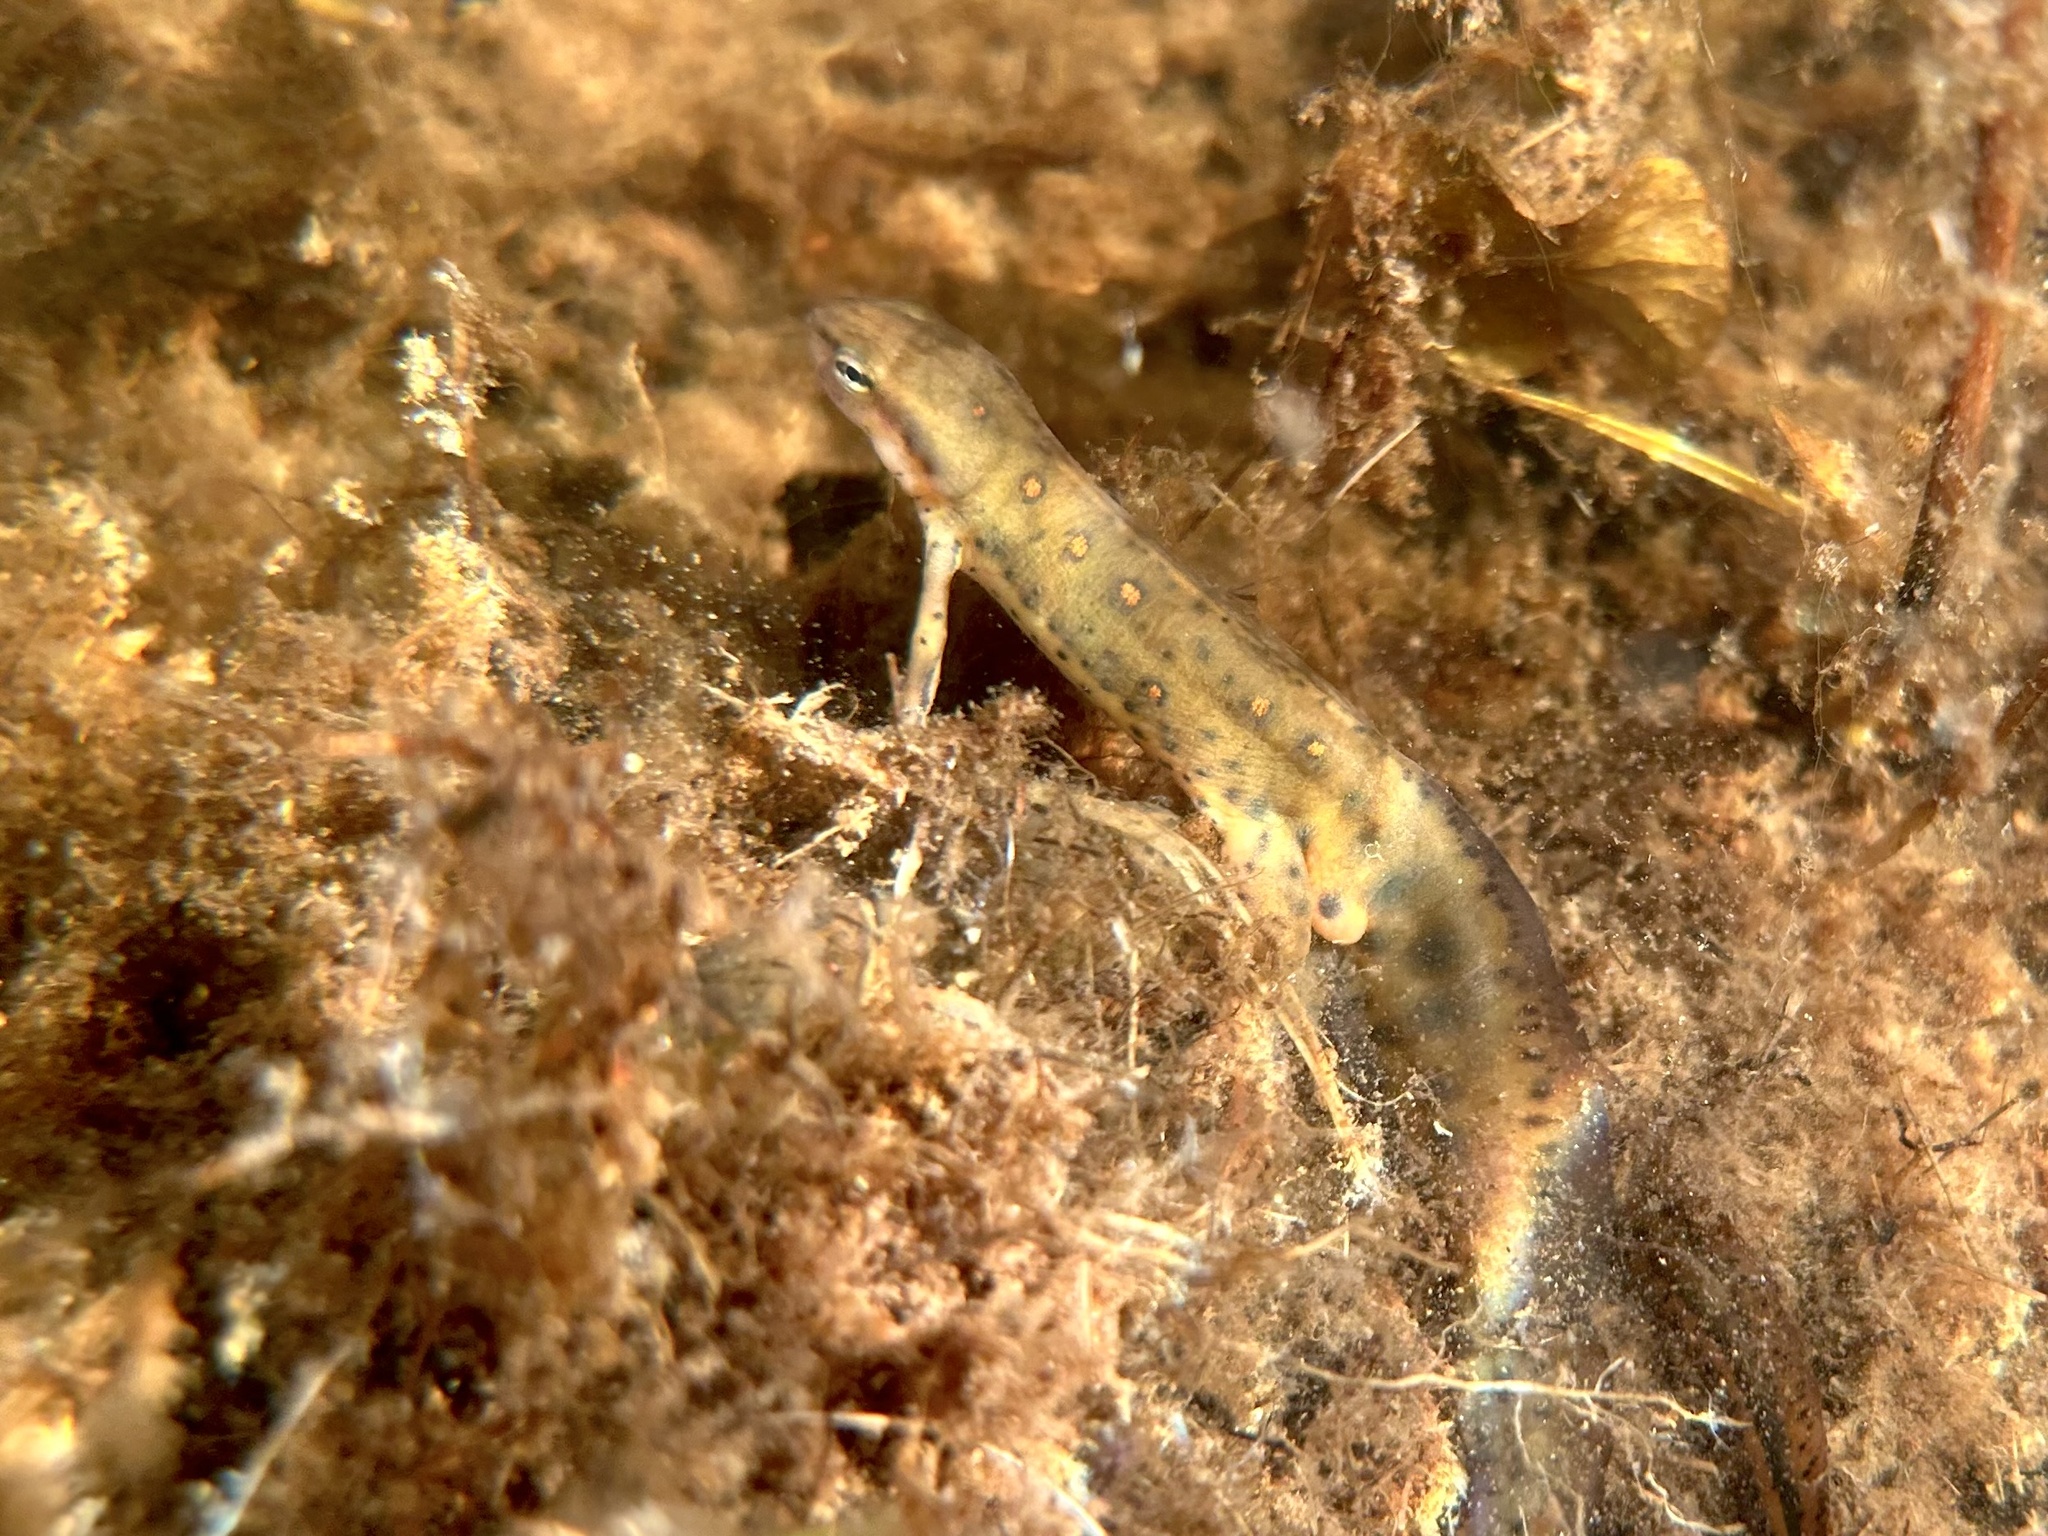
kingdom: Animalia
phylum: Chordata
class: Amphibia
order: Caudata
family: Salamandridae
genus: Notophthalmus
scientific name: Notophthalmus viridescens
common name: Eastern newt
